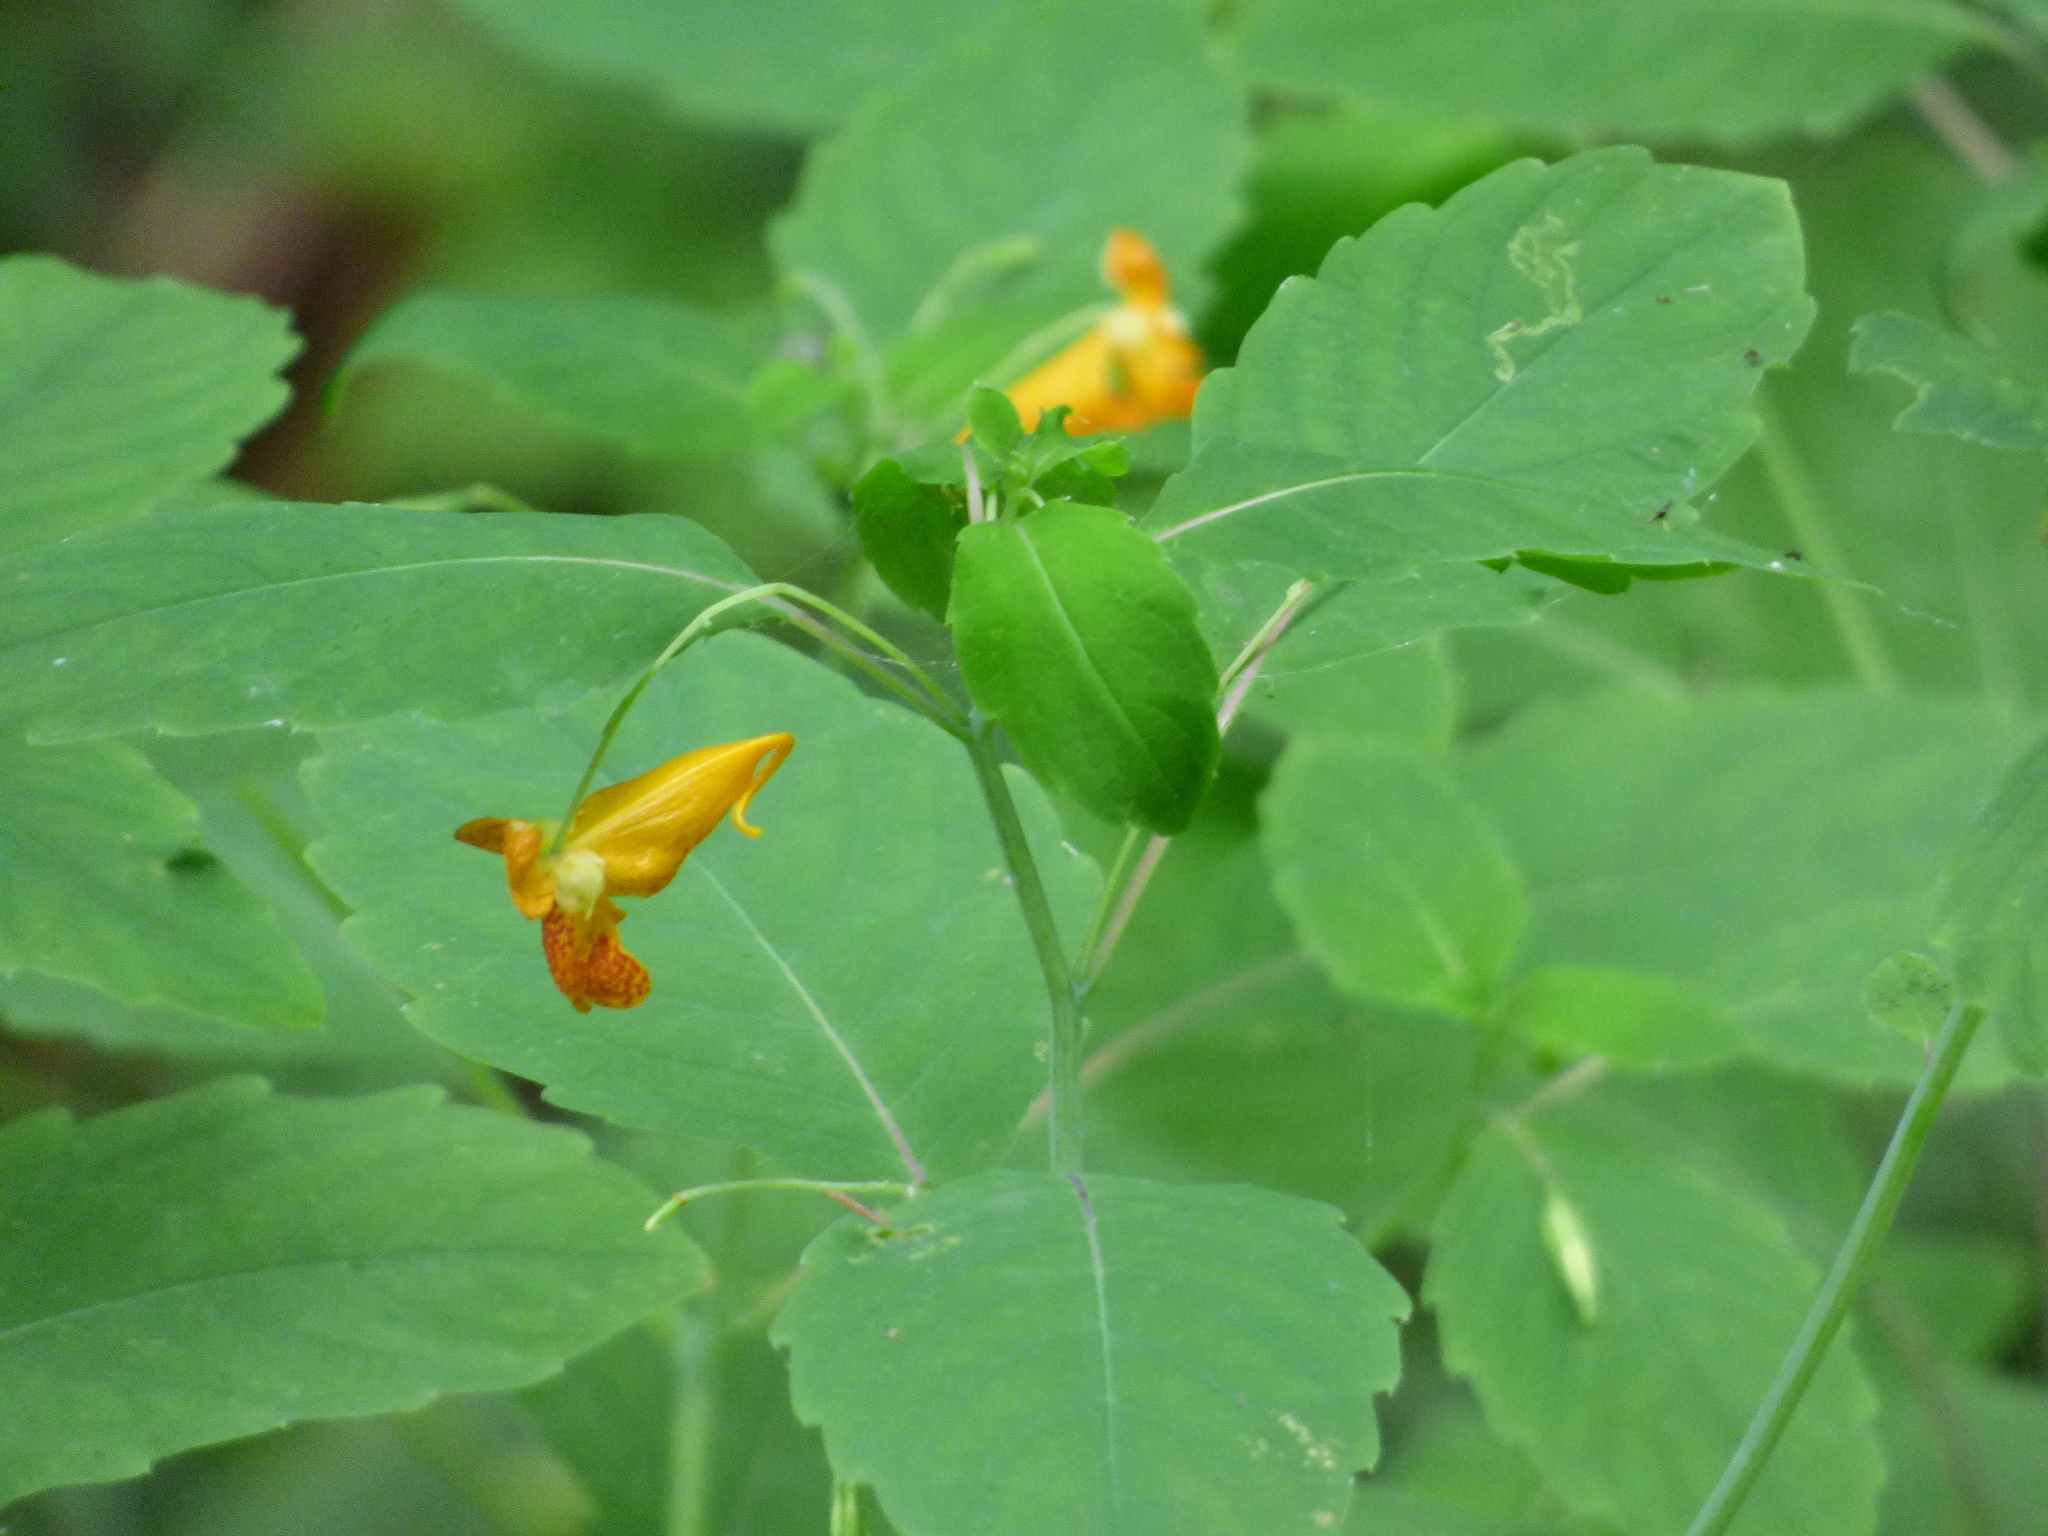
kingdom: Plantae
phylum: Tracheophyta
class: Magnoliopsida
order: Ericales
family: Balsaminaceae
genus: Impatiens
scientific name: Impatiens capensis
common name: Orange balsam
